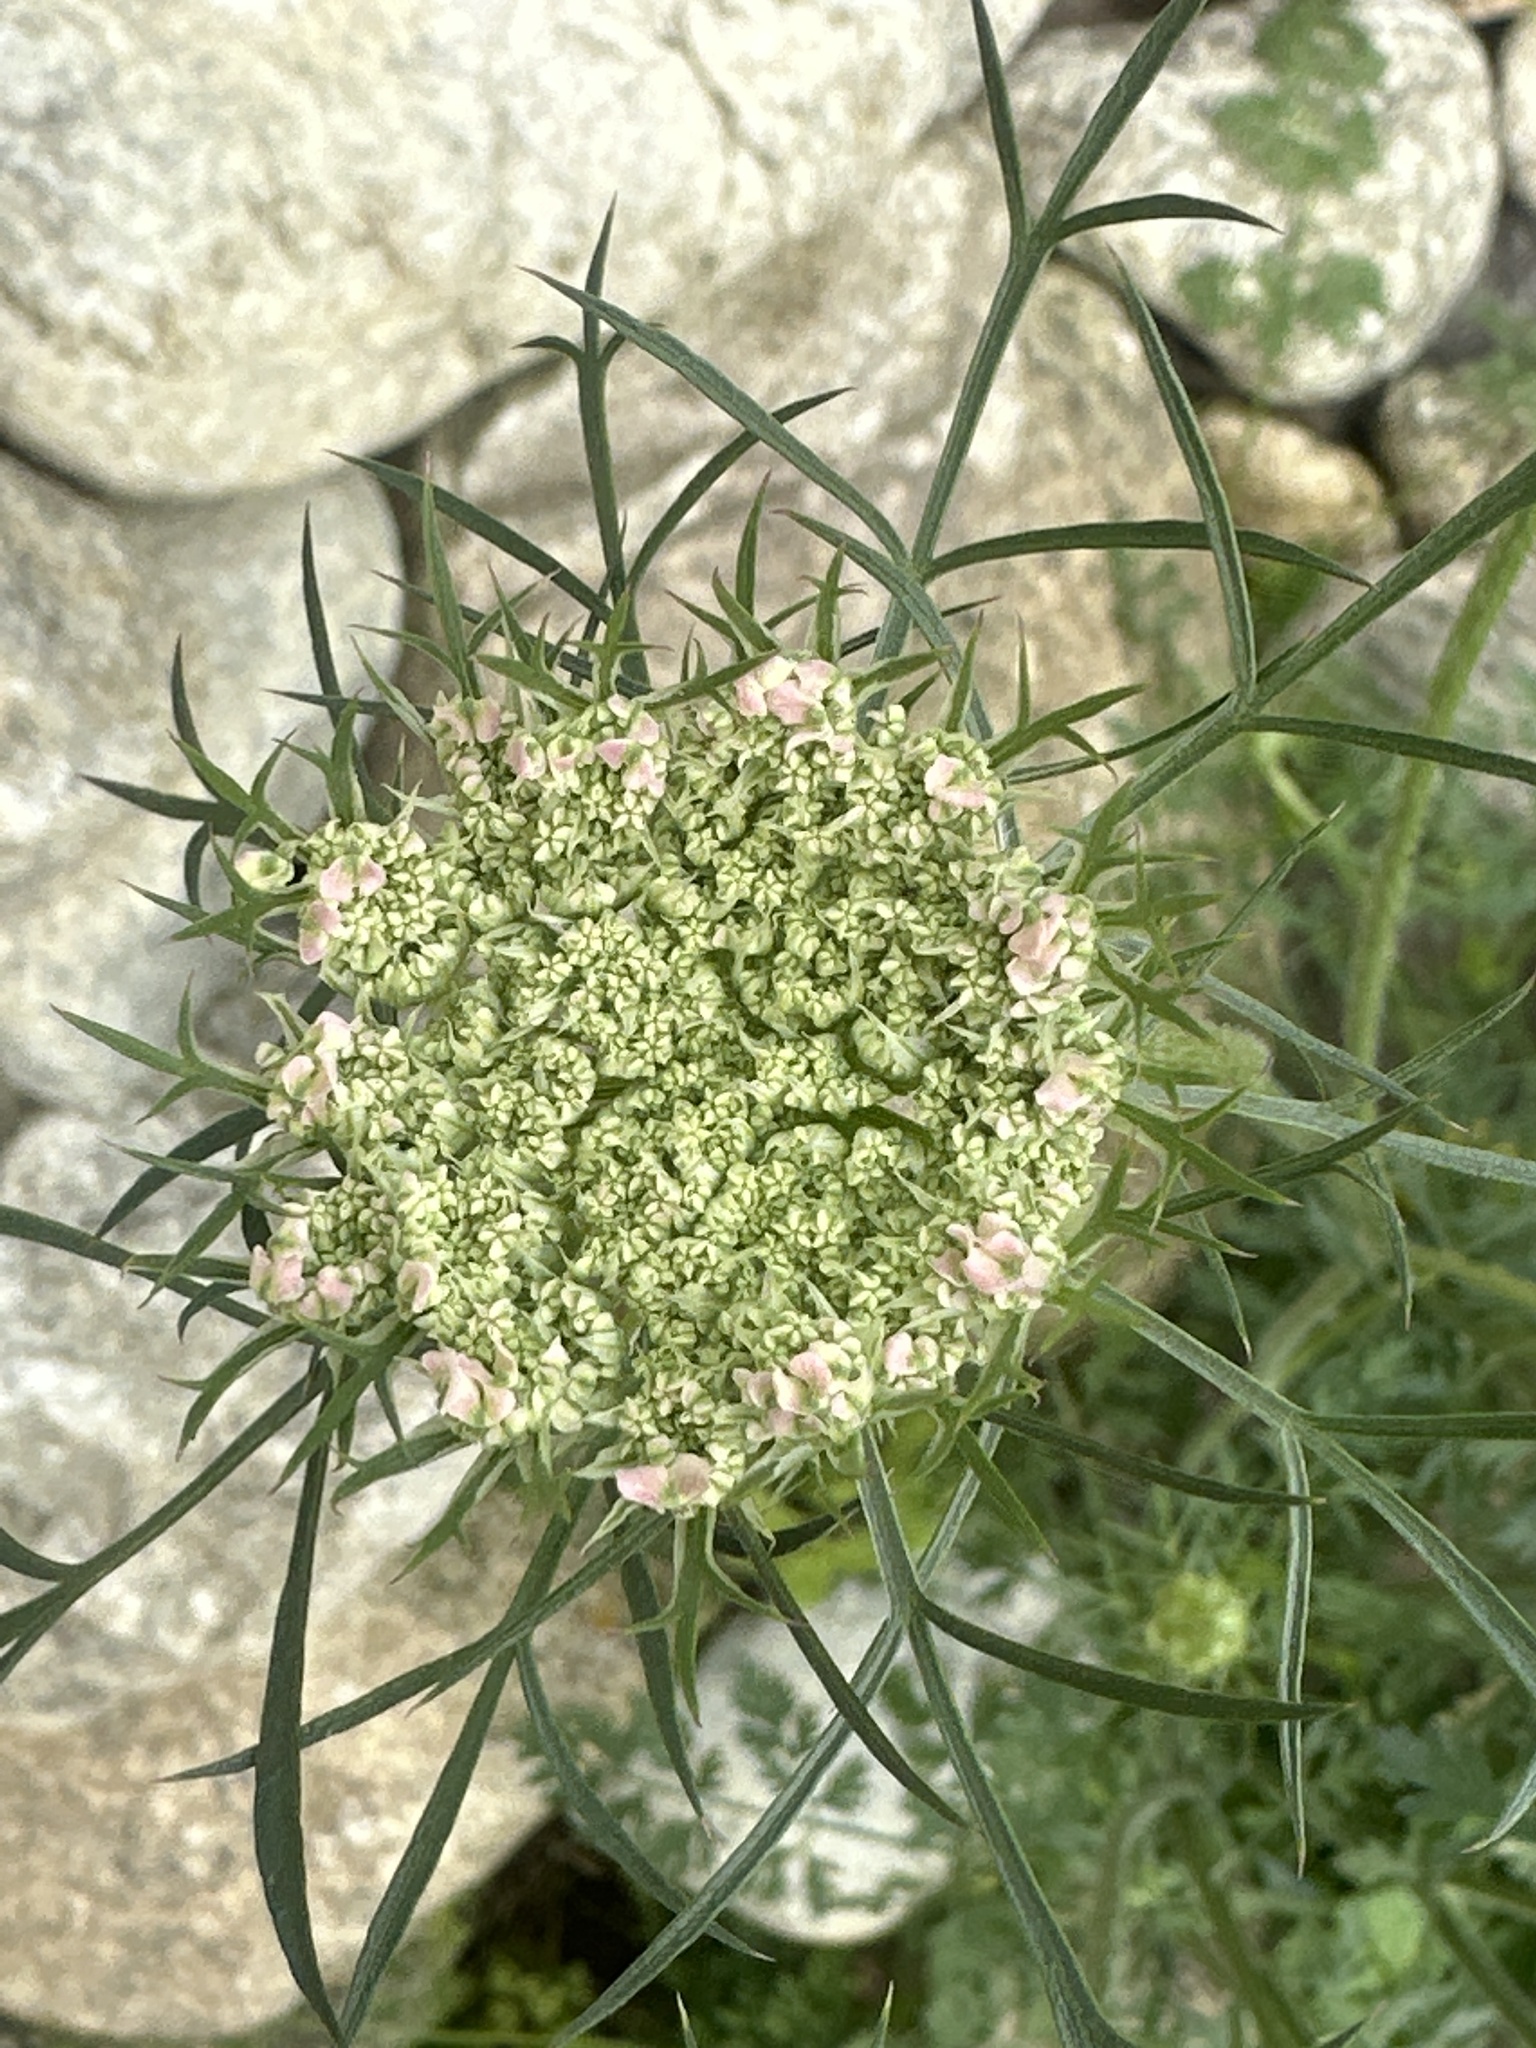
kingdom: Plantae
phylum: Tracheophyta
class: Magnoliopsida
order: Apiales
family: Apiaceae
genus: Daucus
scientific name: Daucus carota
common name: Wild carrot
